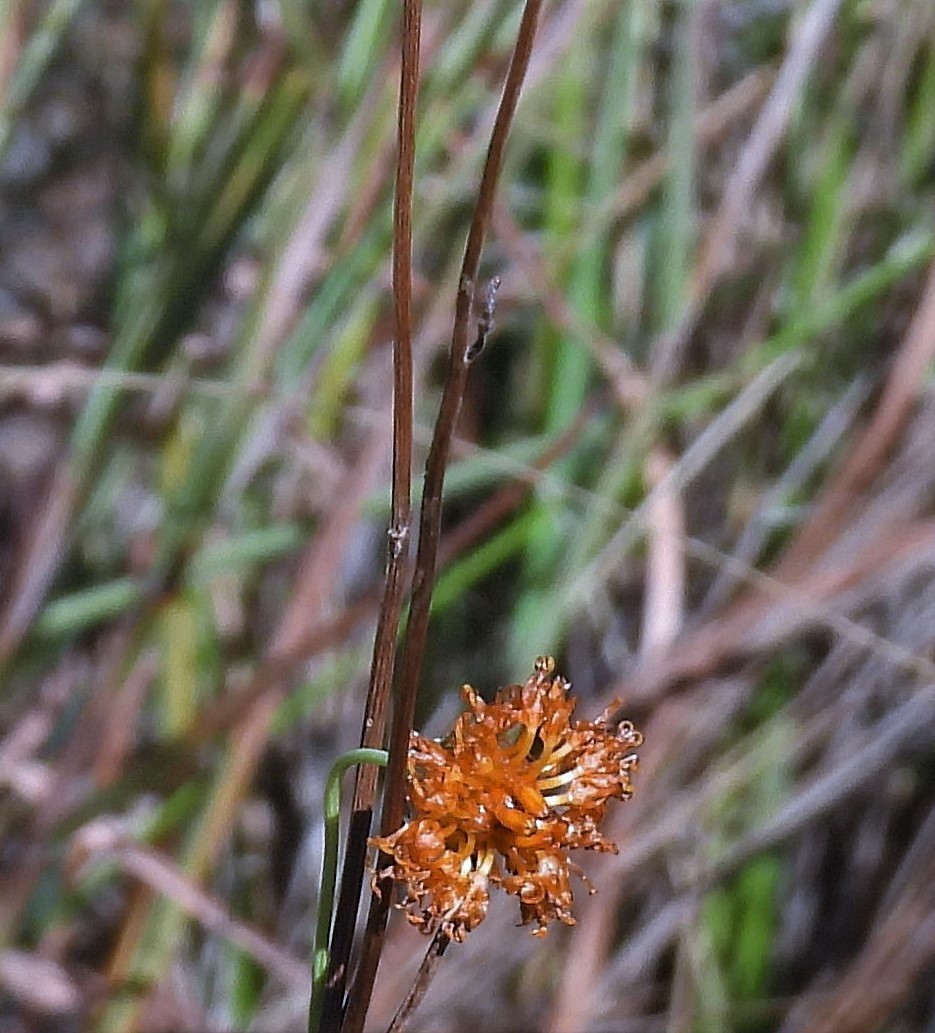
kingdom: Plantae
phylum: Tracheophyta
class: Magnoliopsida
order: Asterales
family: Asteraceae
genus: Thelesperma
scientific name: Thelesperma megapotamicum
